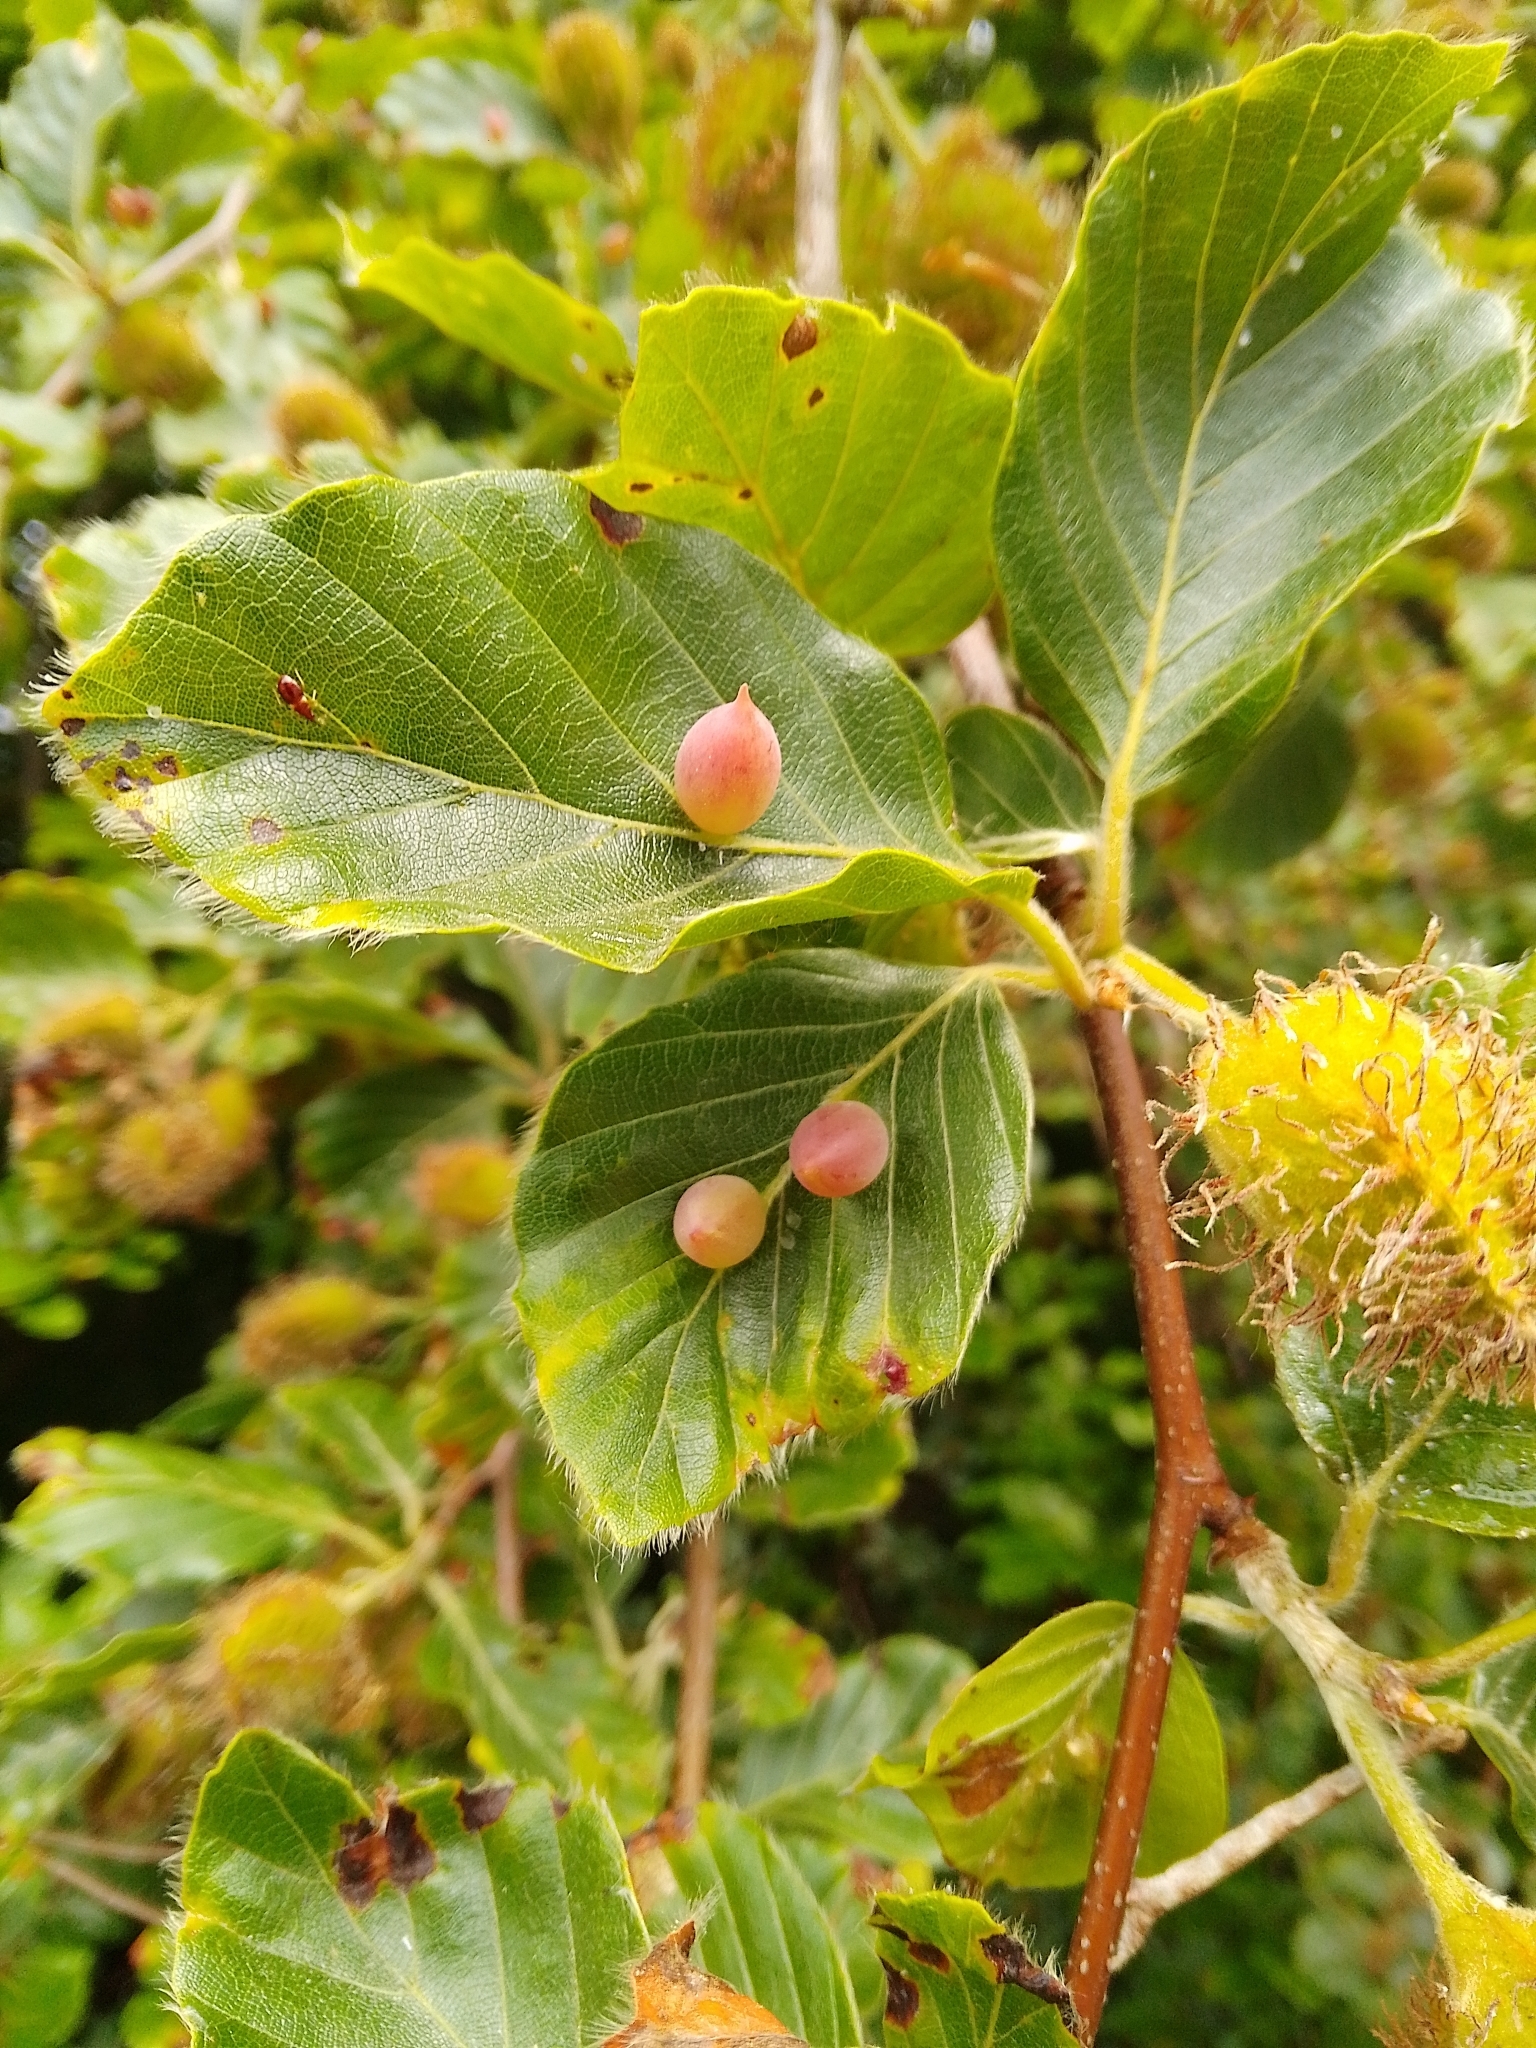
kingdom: Animalia
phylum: Arthropoda
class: Insecta
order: Diptera
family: Cecidomyiidae
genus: Mikiola
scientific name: Mikiola fagi
